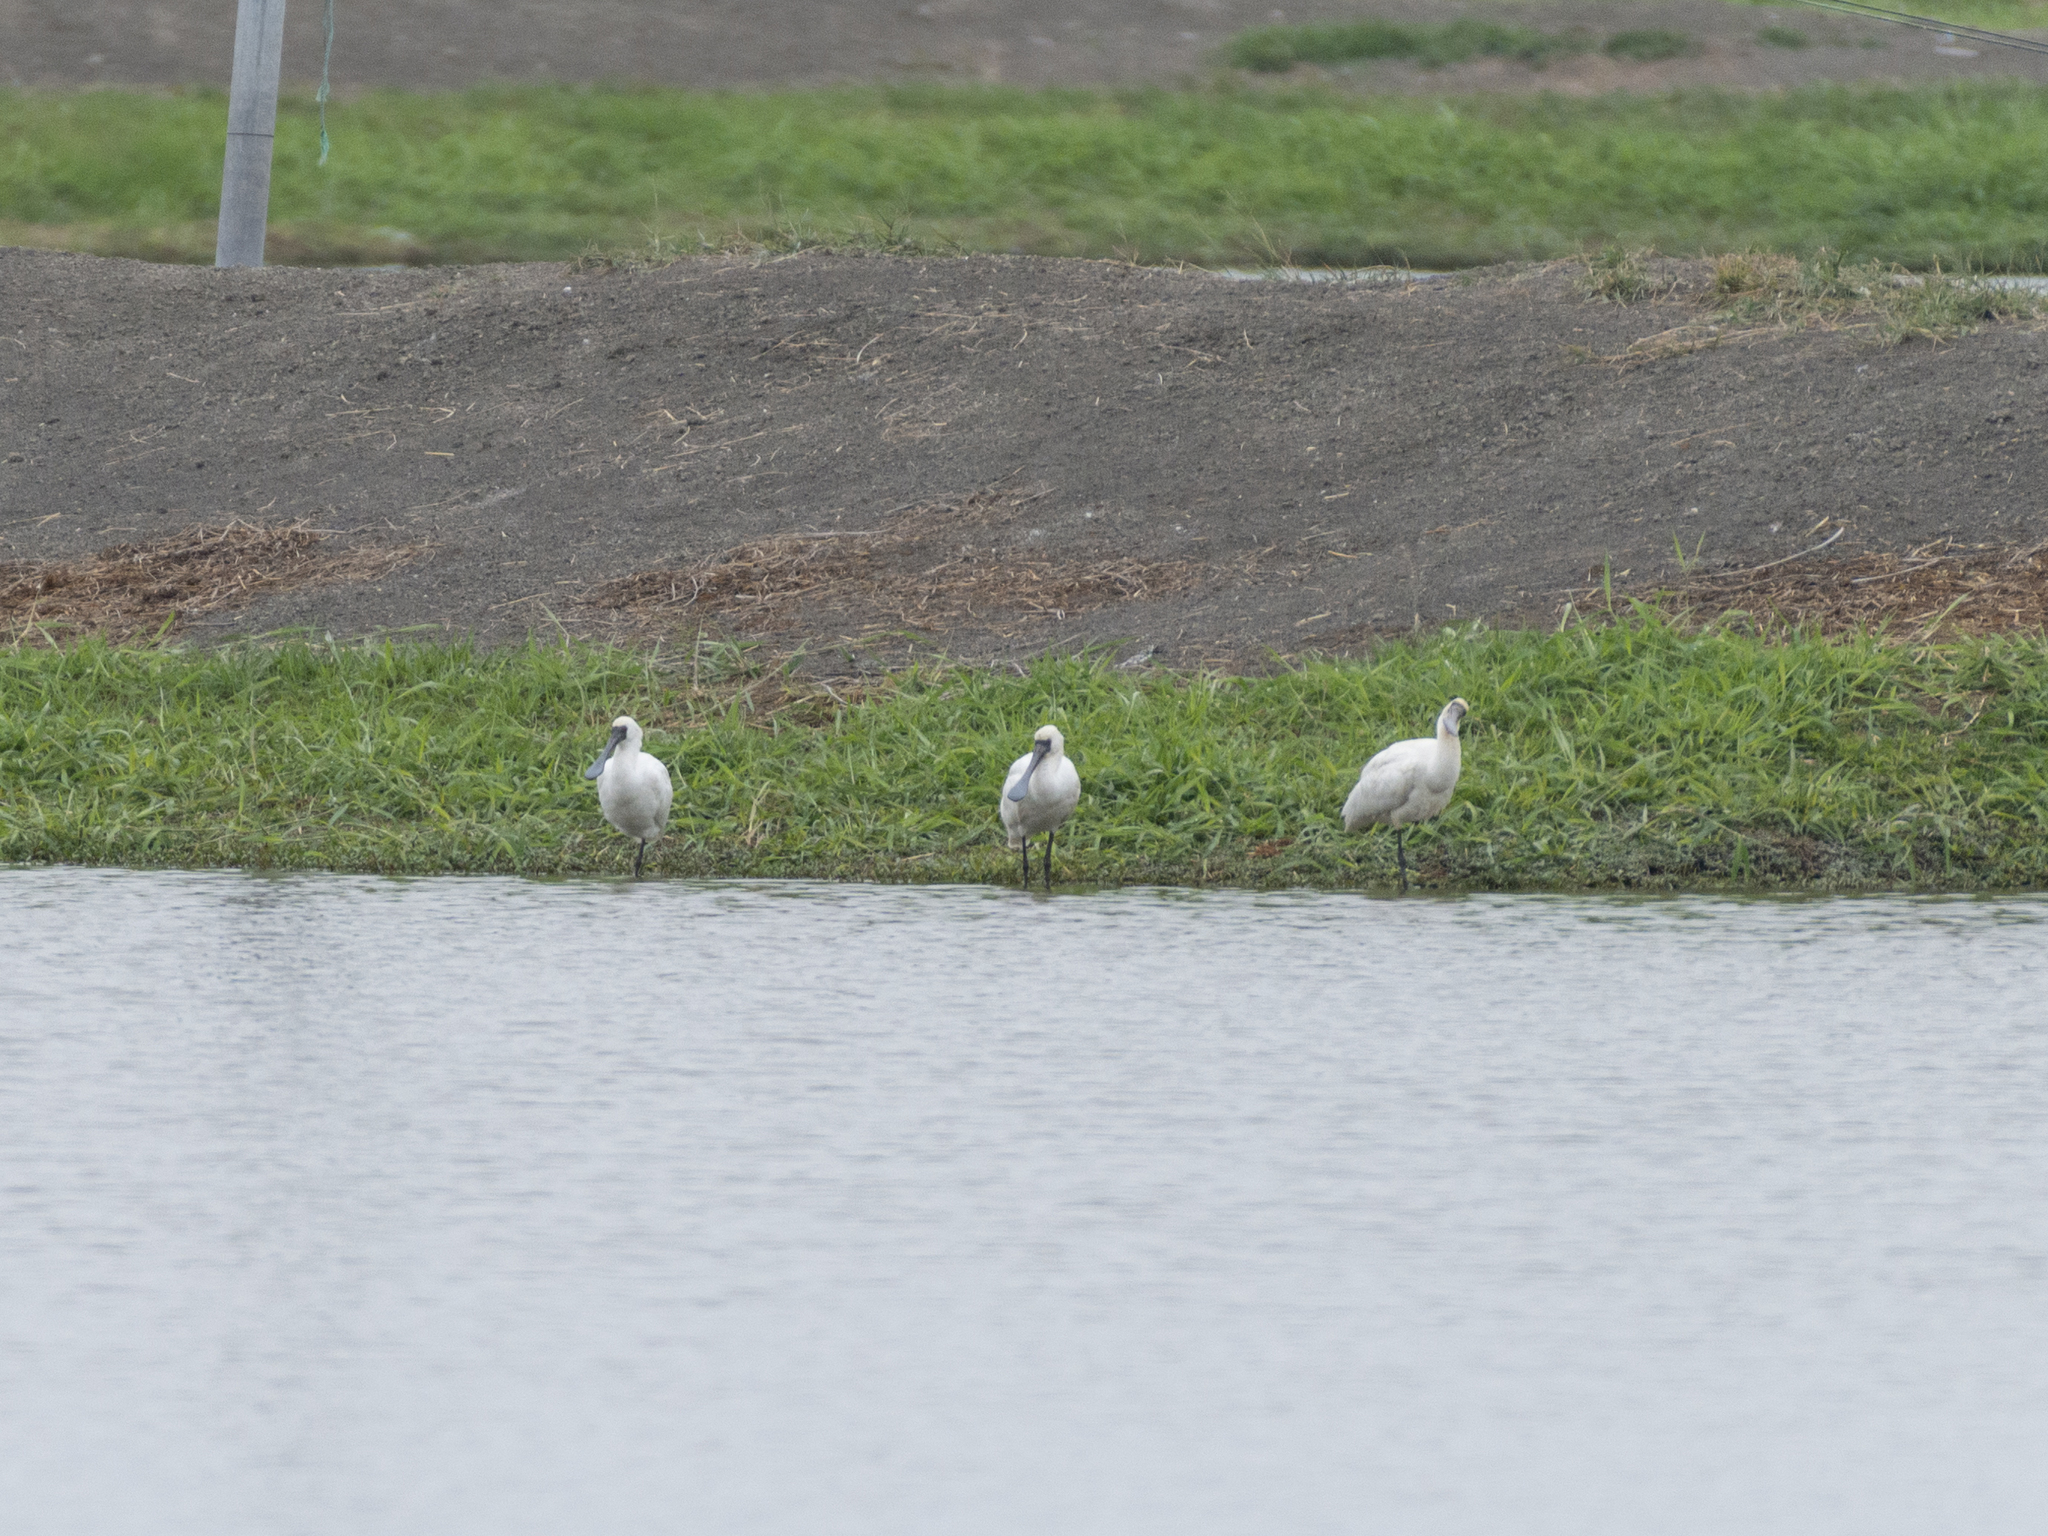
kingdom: Animalia
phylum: Chordata
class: Aves
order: Pelecaniformes
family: Threskiornithidae
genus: Platalea
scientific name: Platalea minor
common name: Black-faced spoonbill
